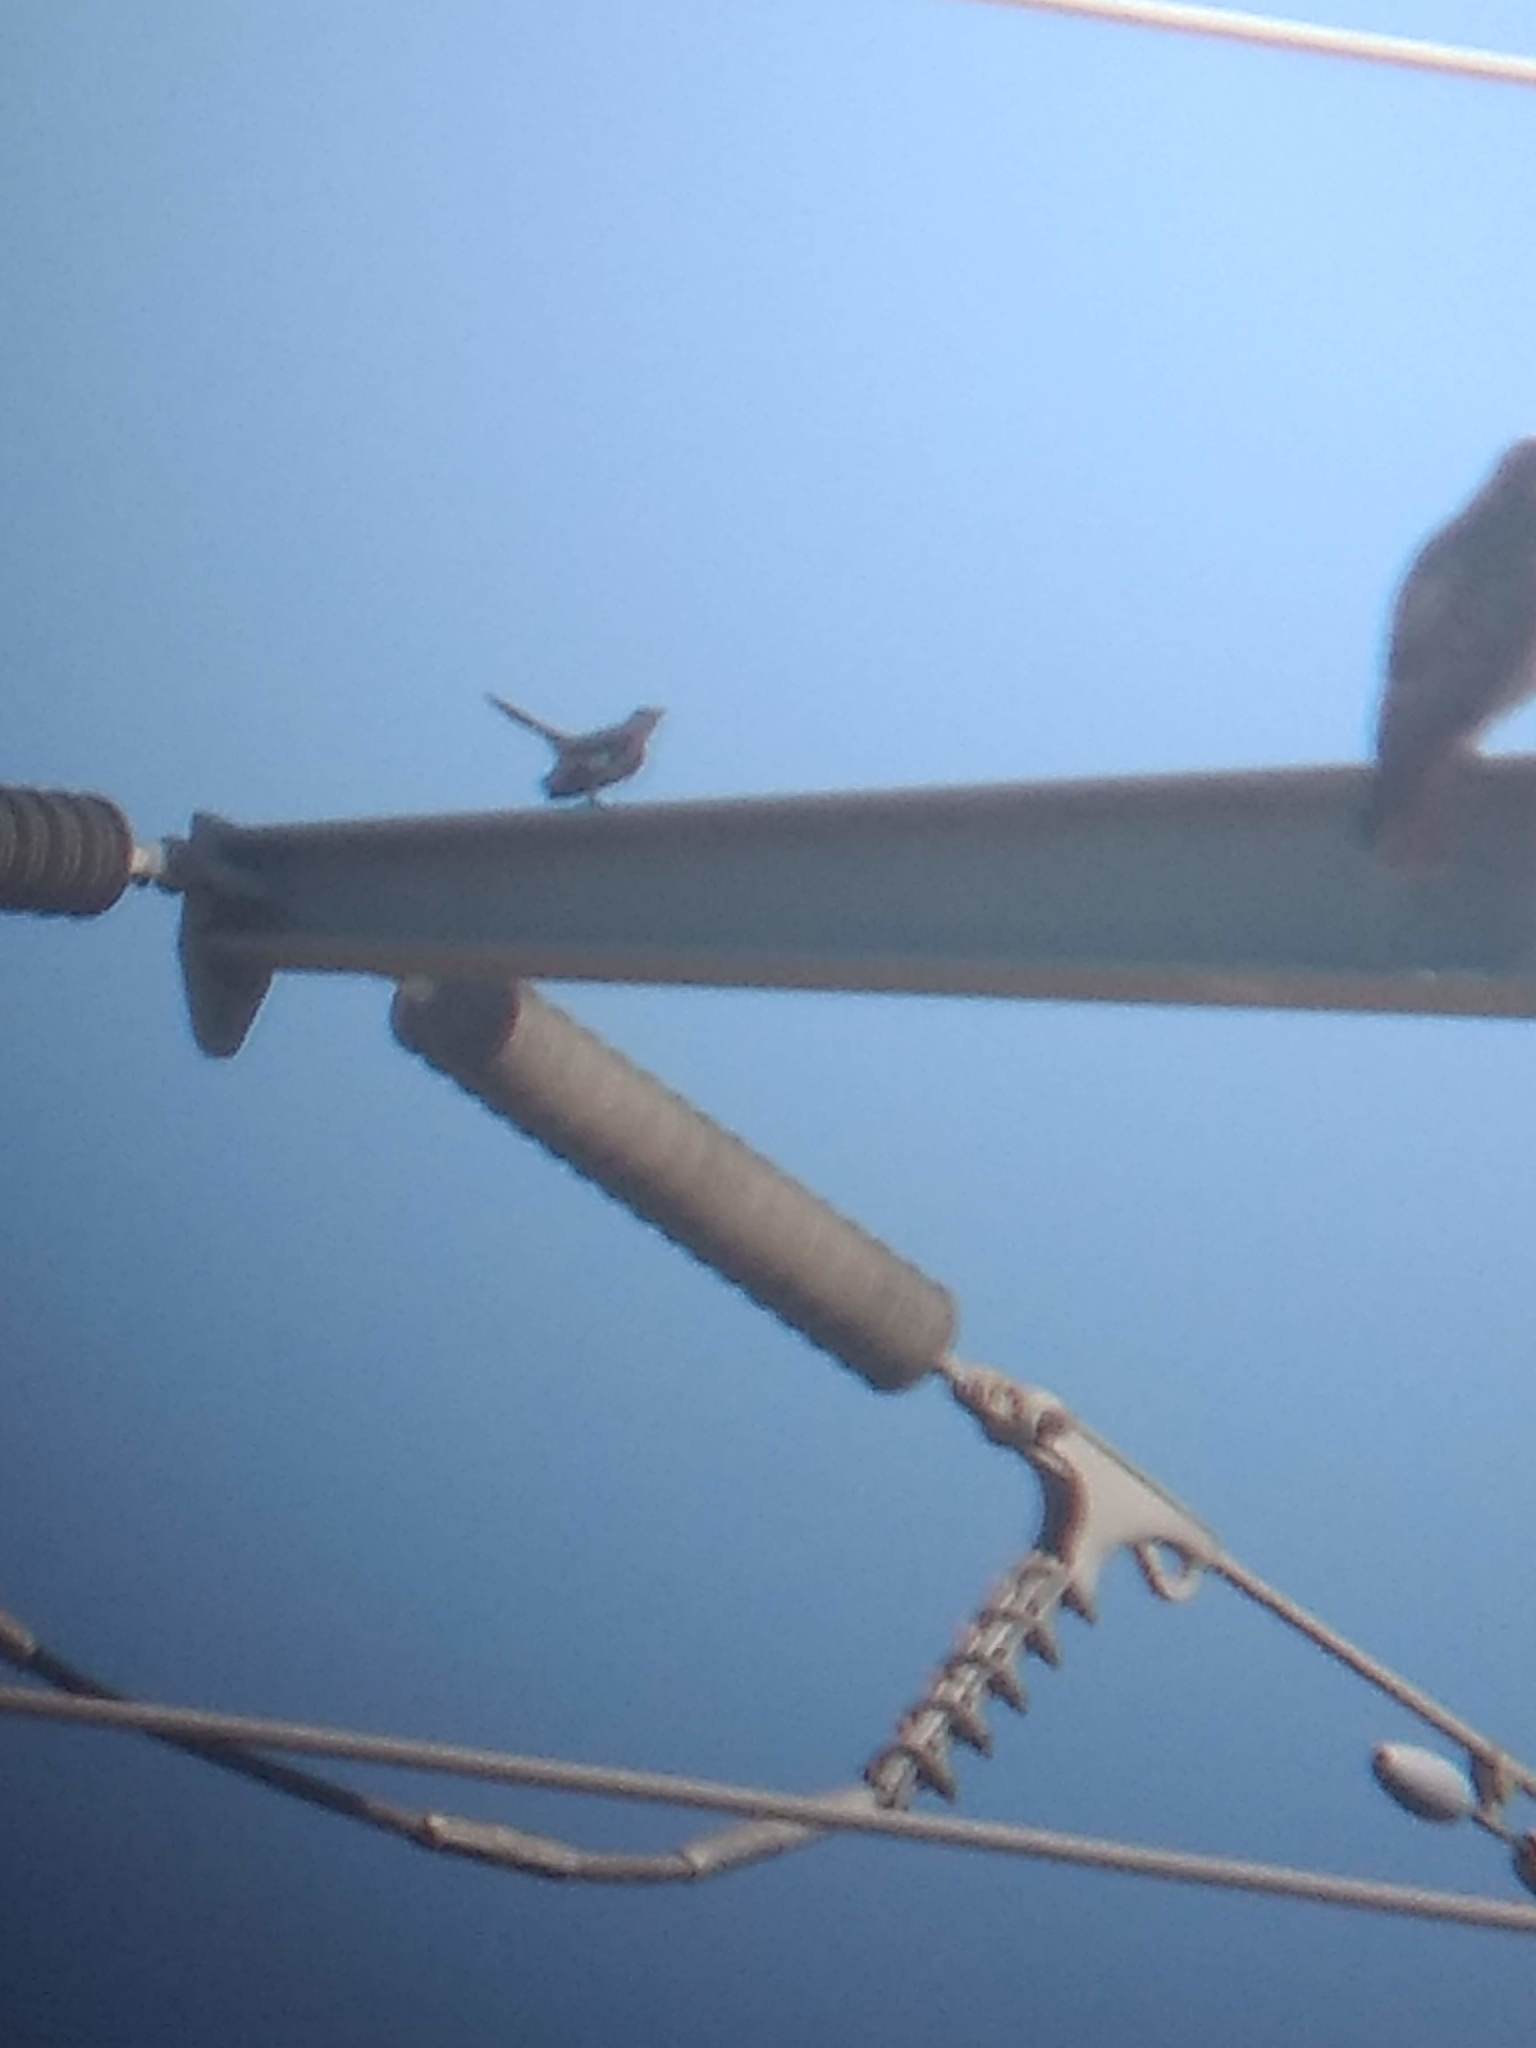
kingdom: Animalia
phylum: Chordata
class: Aves
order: Passeriformes
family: Mimidae
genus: Mimus
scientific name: Mimus polyglottos
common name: Northern mockingbird
